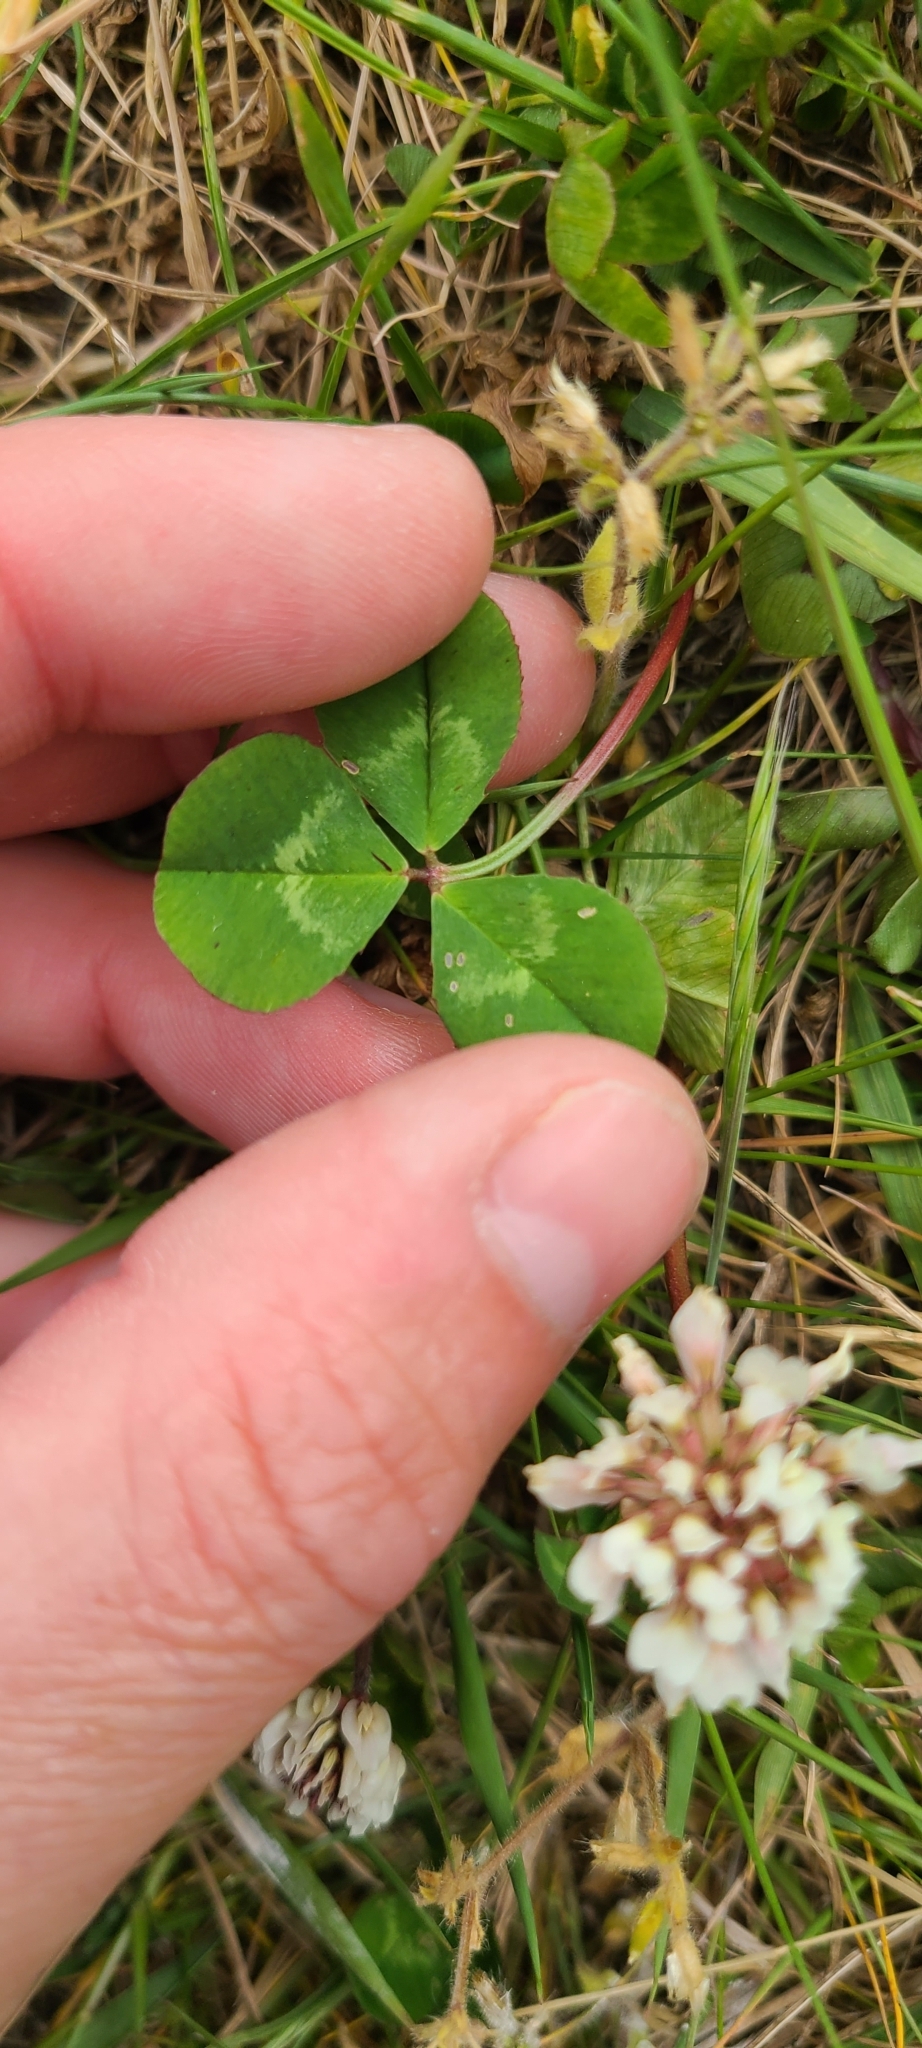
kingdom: Plantae
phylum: Tracheophyta
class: Magnoliopsida
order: Fabales
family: Fabaceae
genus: Trifolium
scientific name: Trifolium repens
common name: White clover
